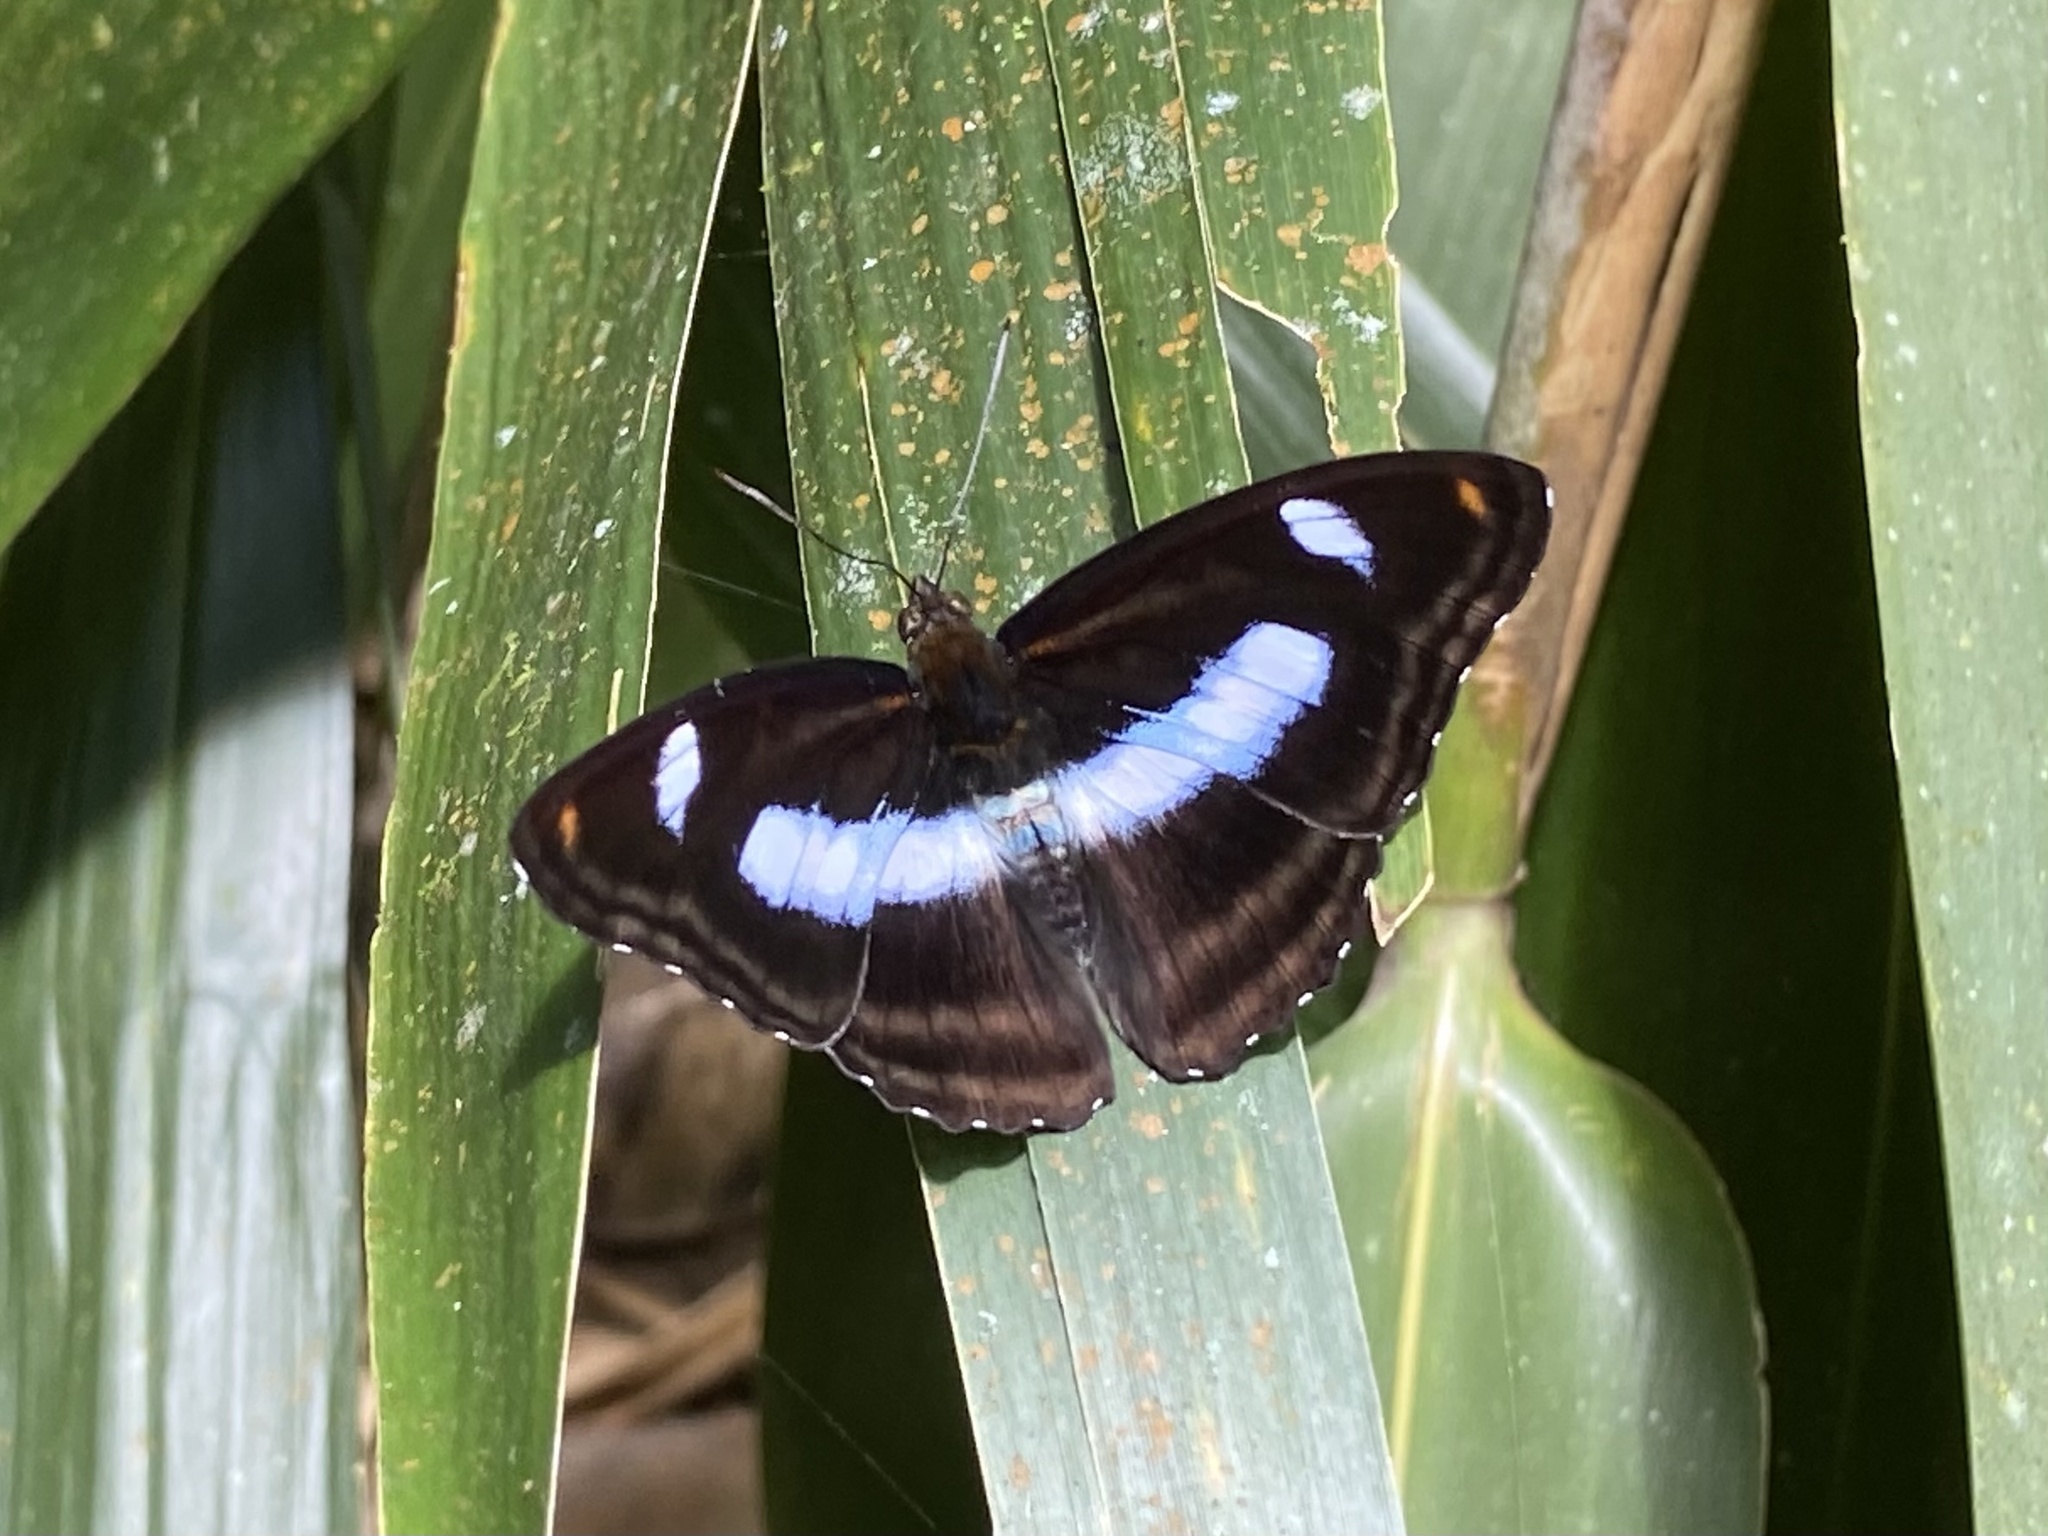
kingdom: Animalia
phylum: Arthropoda
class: Insecta
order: Lepidoptera
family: Nymphalidae
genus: Pantoporia
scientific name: Pantoporia cama
